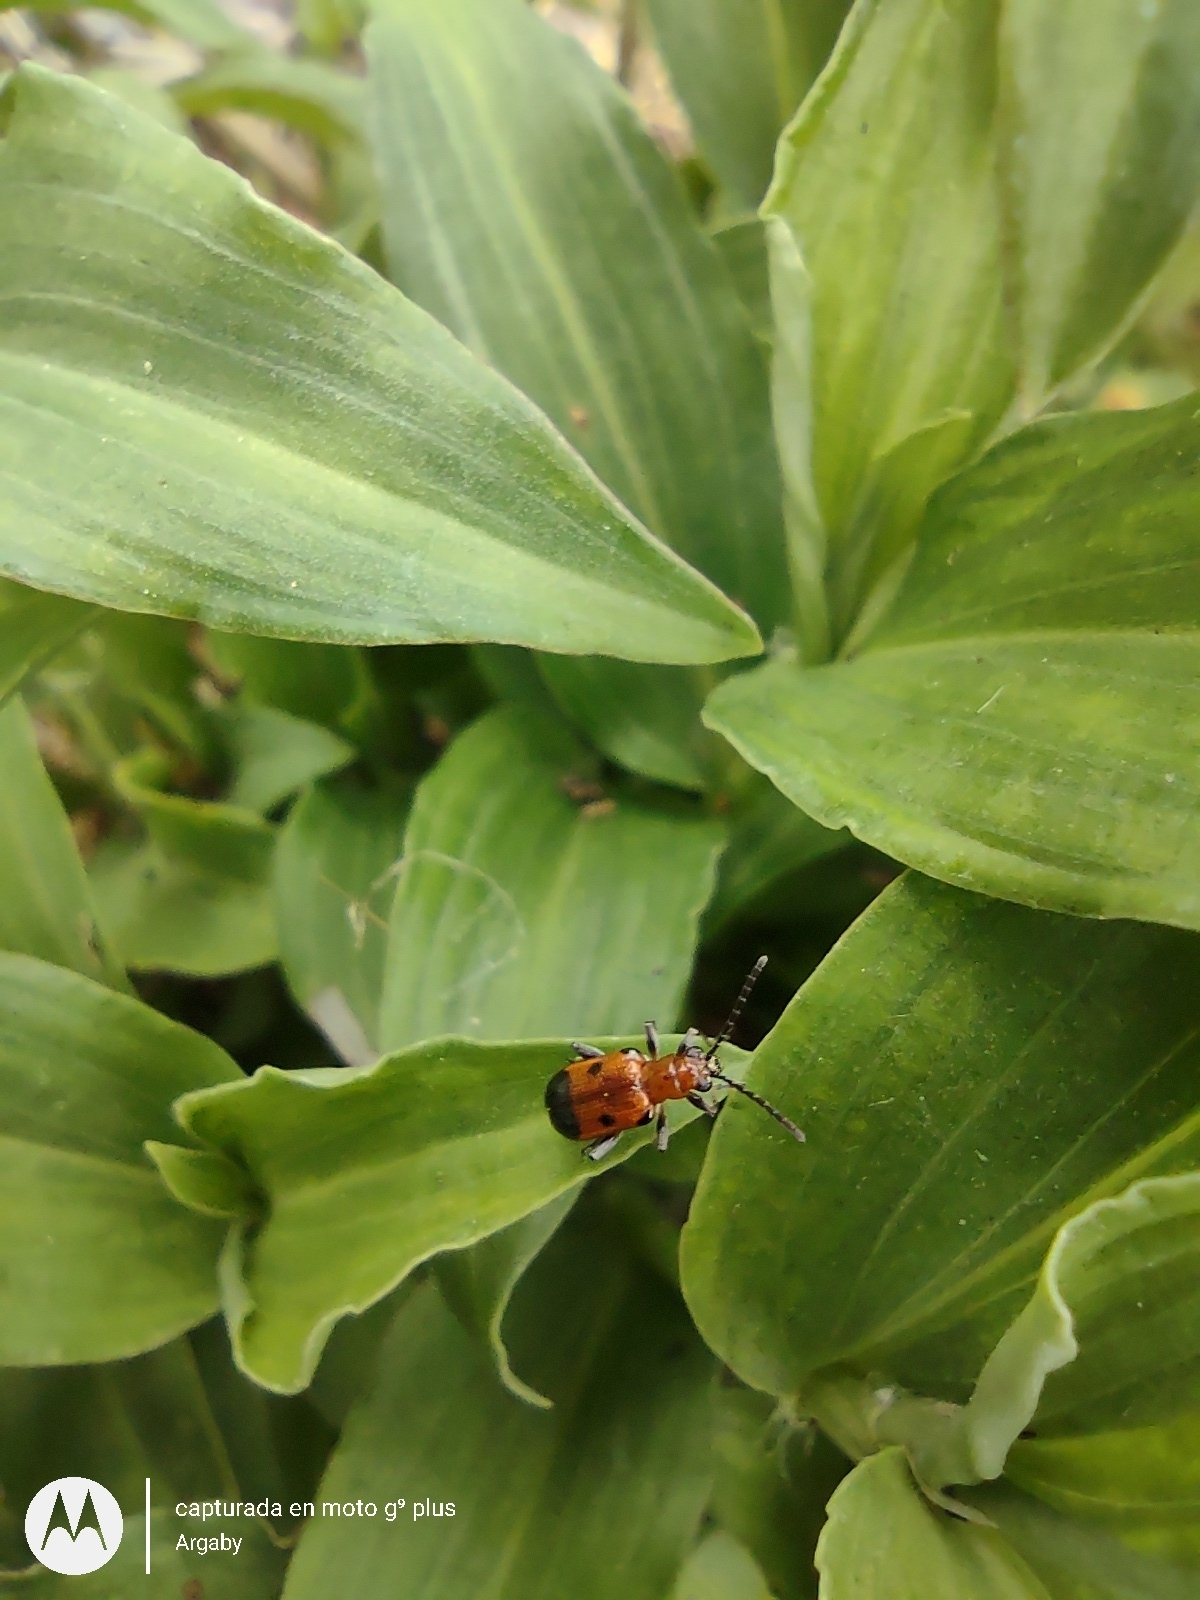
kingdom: Animalia
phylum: Arthropoda
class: Insecta
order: Coleoptera
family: Chrysomelidae
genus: Neolema
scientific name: Neolema dorsalis
